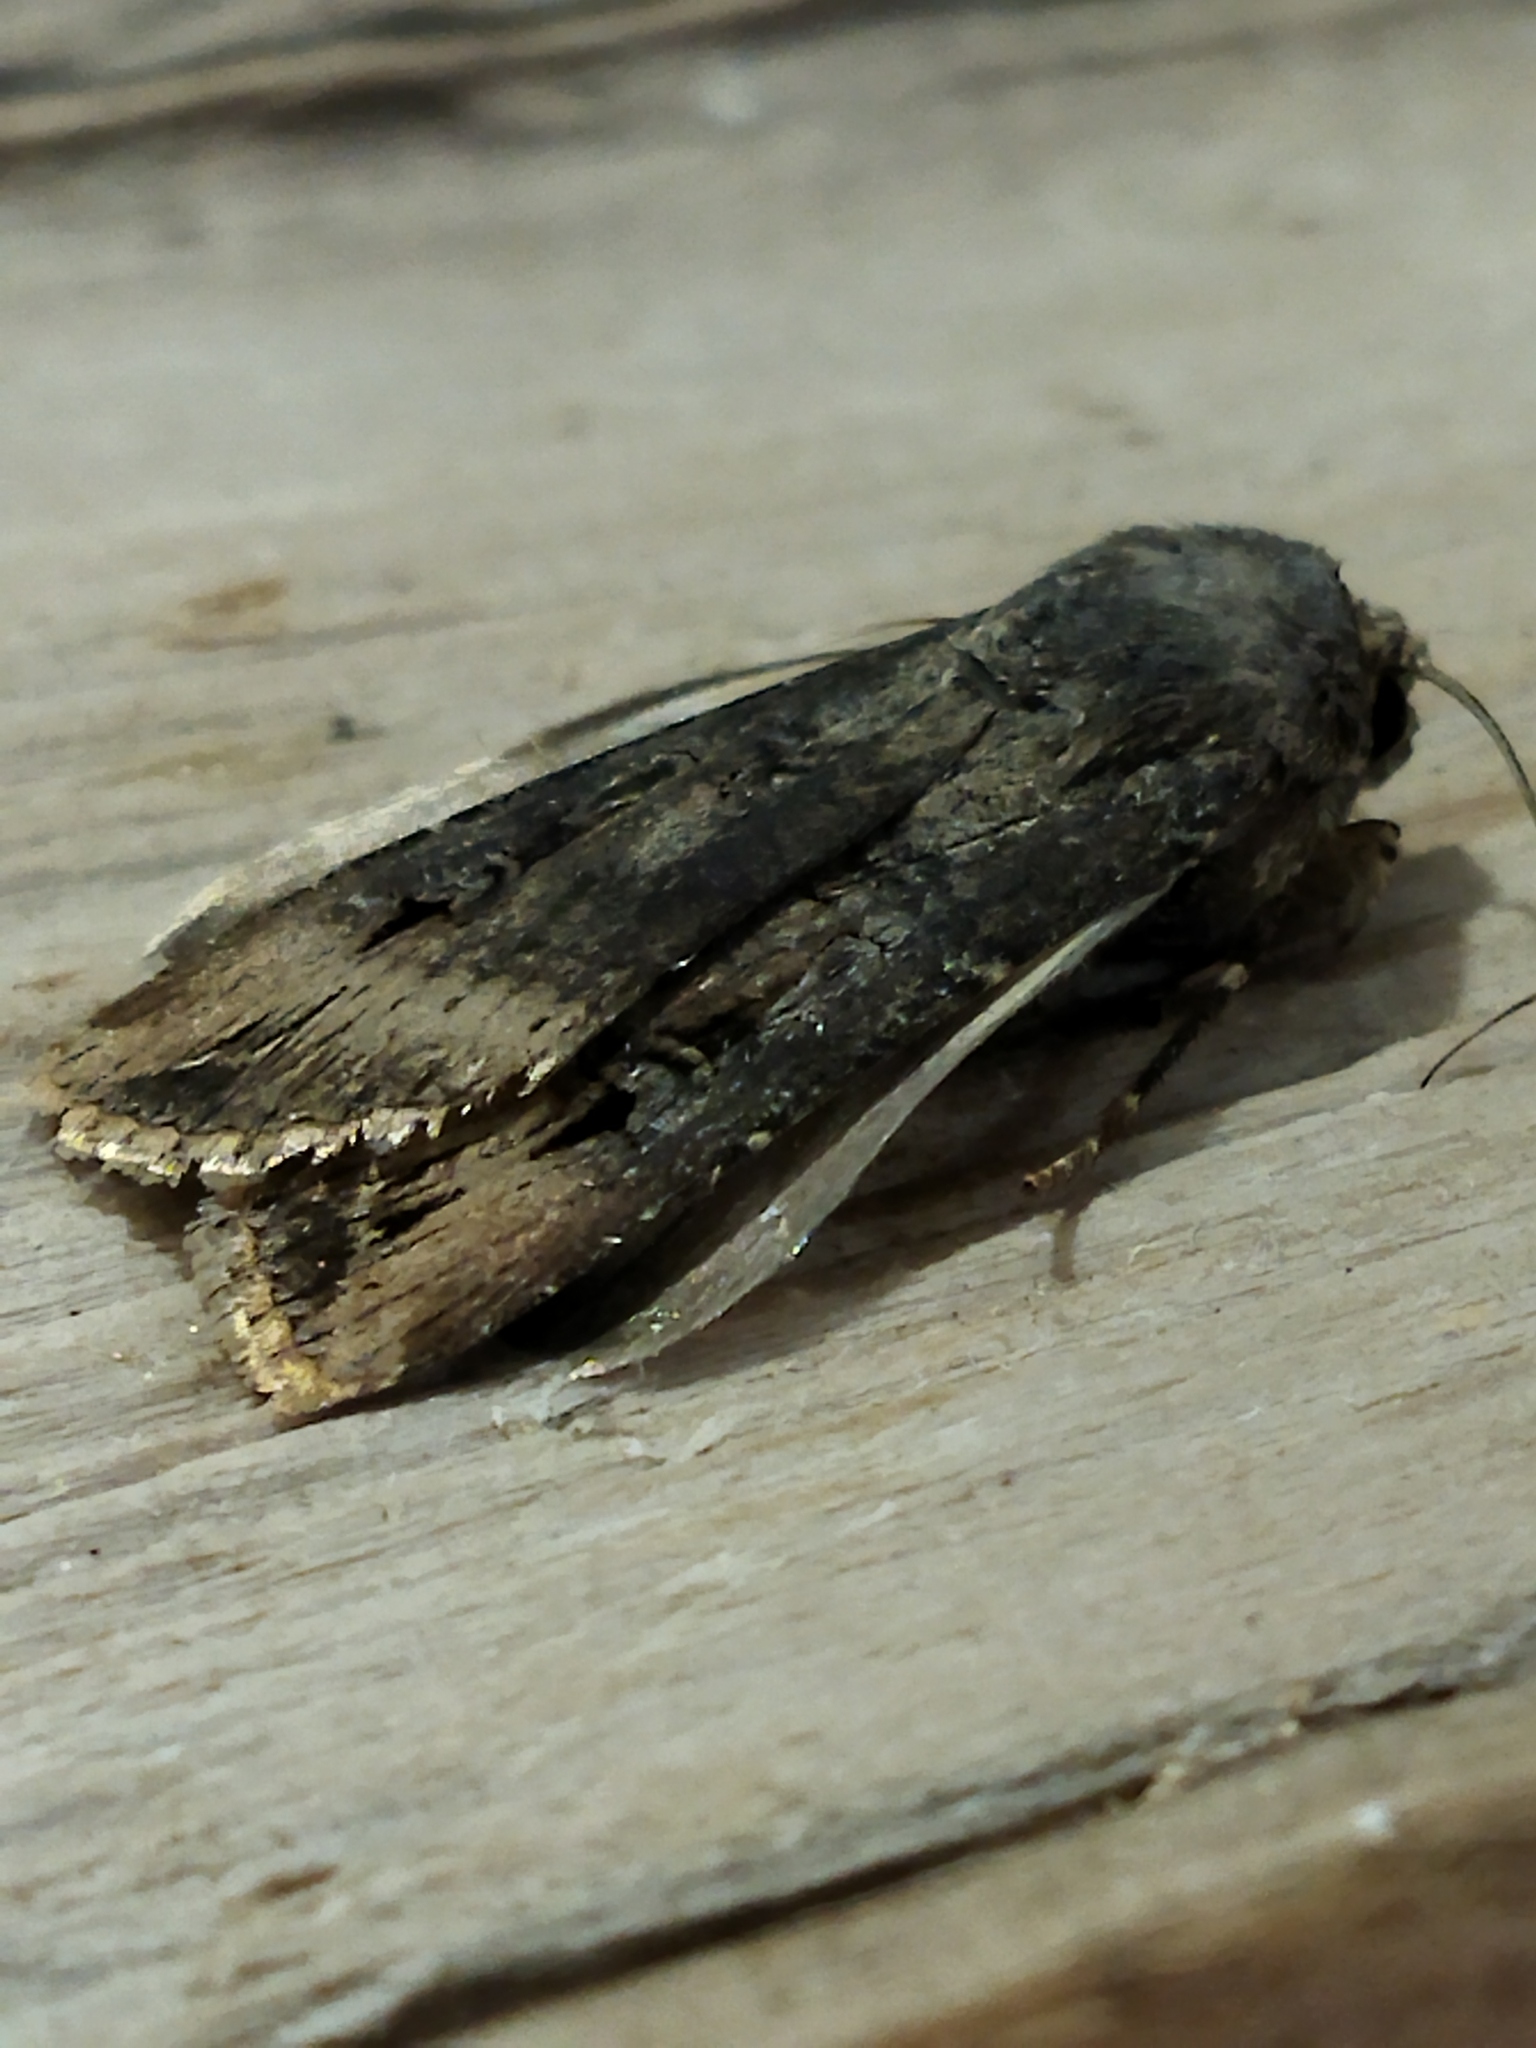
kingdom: Animalia
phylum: Arthropoda
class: Insecta
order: Lepidoptera
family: Noctuidae
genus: Agrotis
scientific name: Agrotis ipsilon
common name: Dark sword-grass
